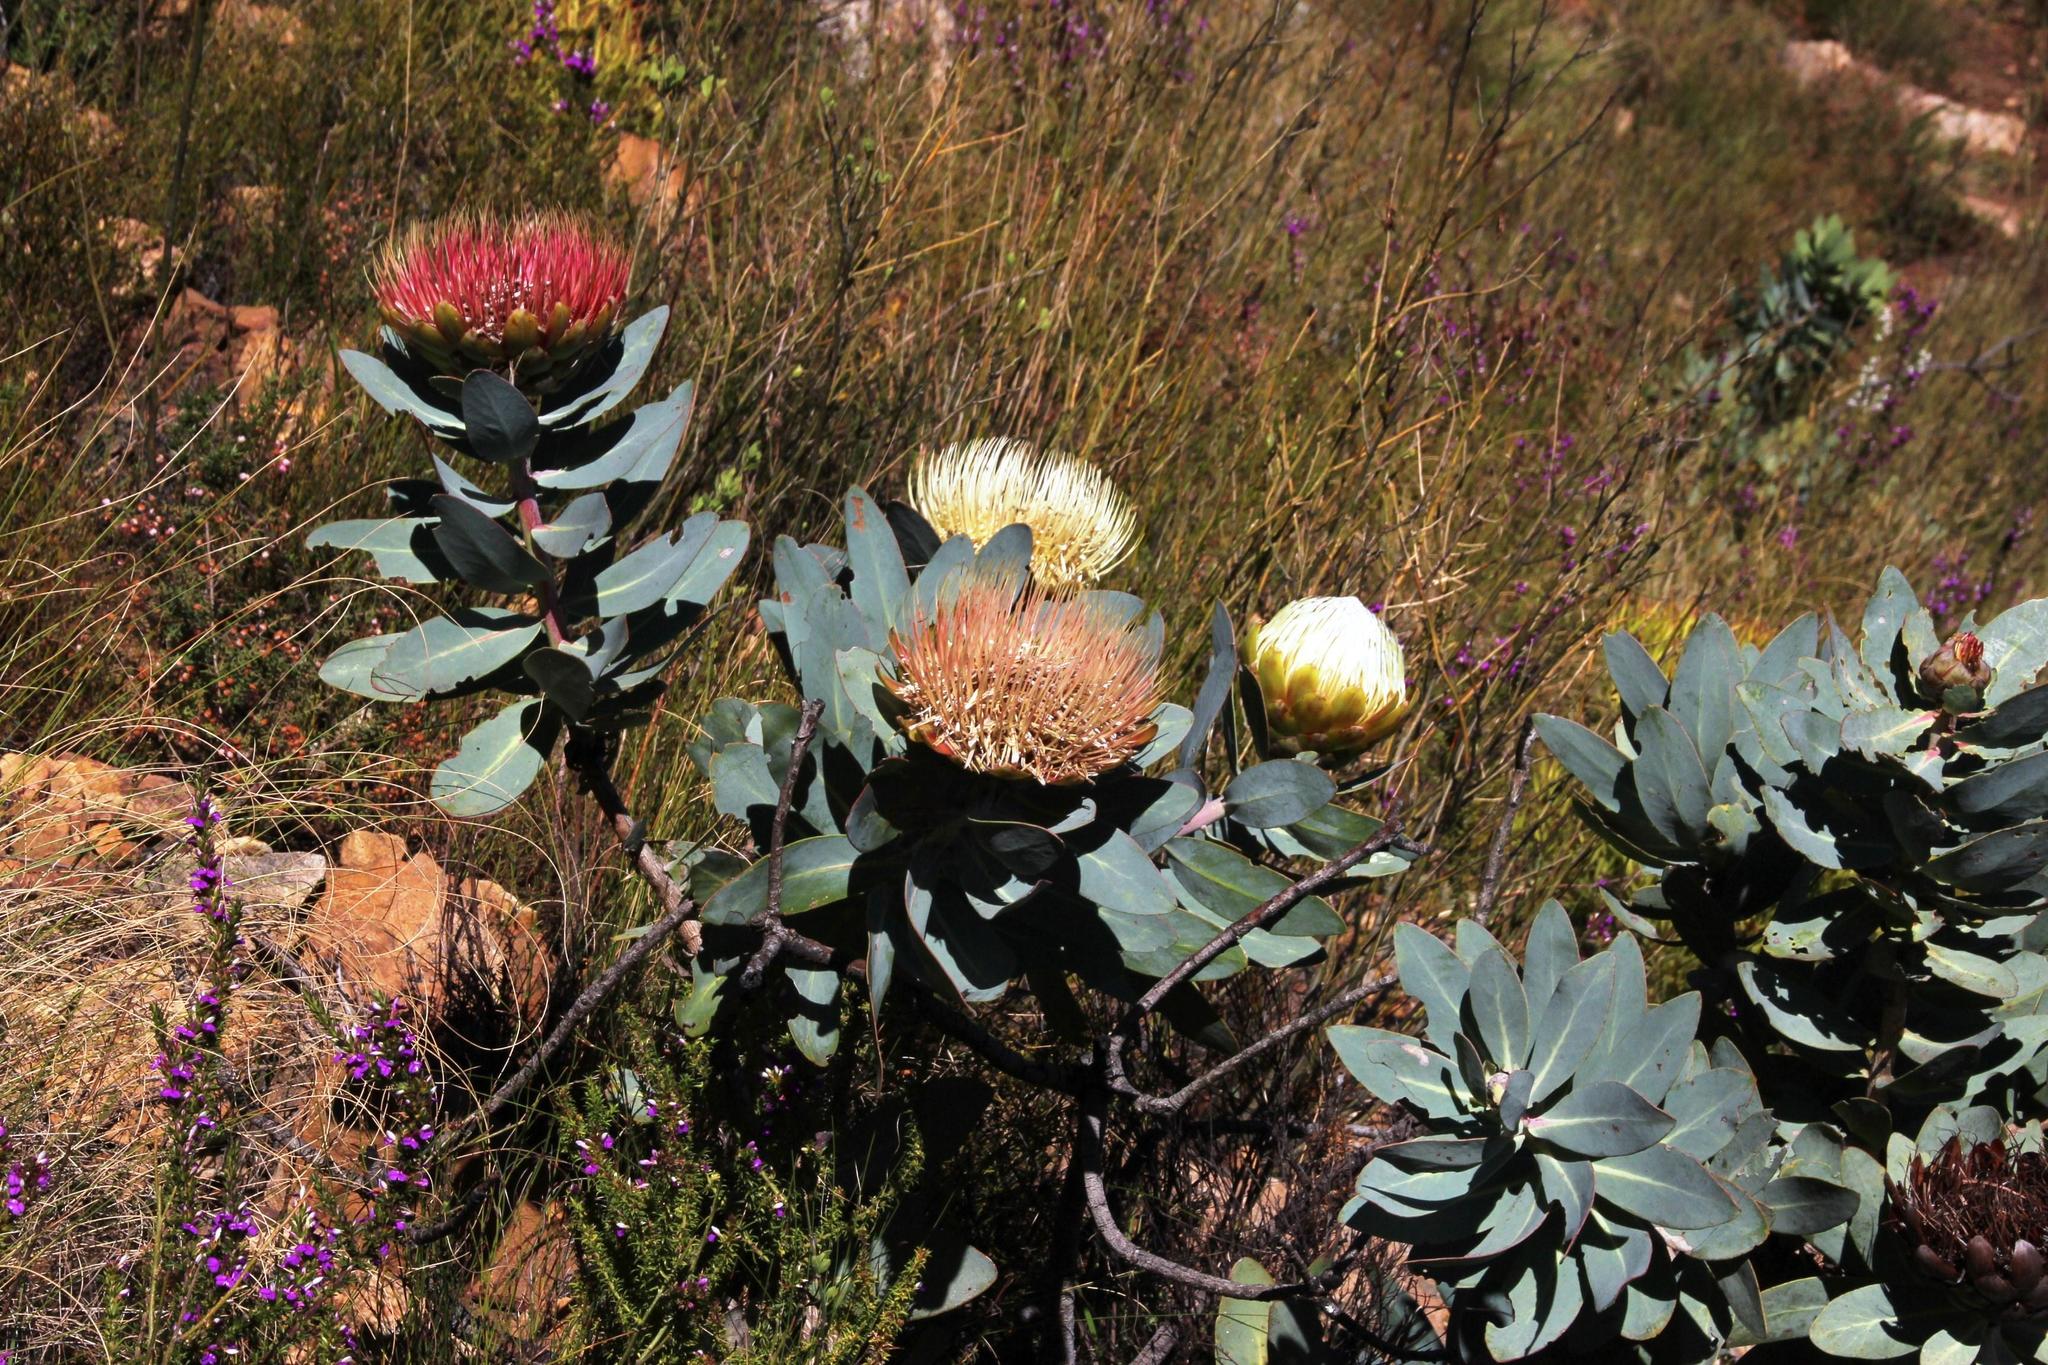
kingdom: Plantae
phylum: Tracheophyta
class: Magnoliopsida
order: Proteales
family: Proteaceae
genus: Protea
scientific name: Protea nitida
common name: Tree protea
